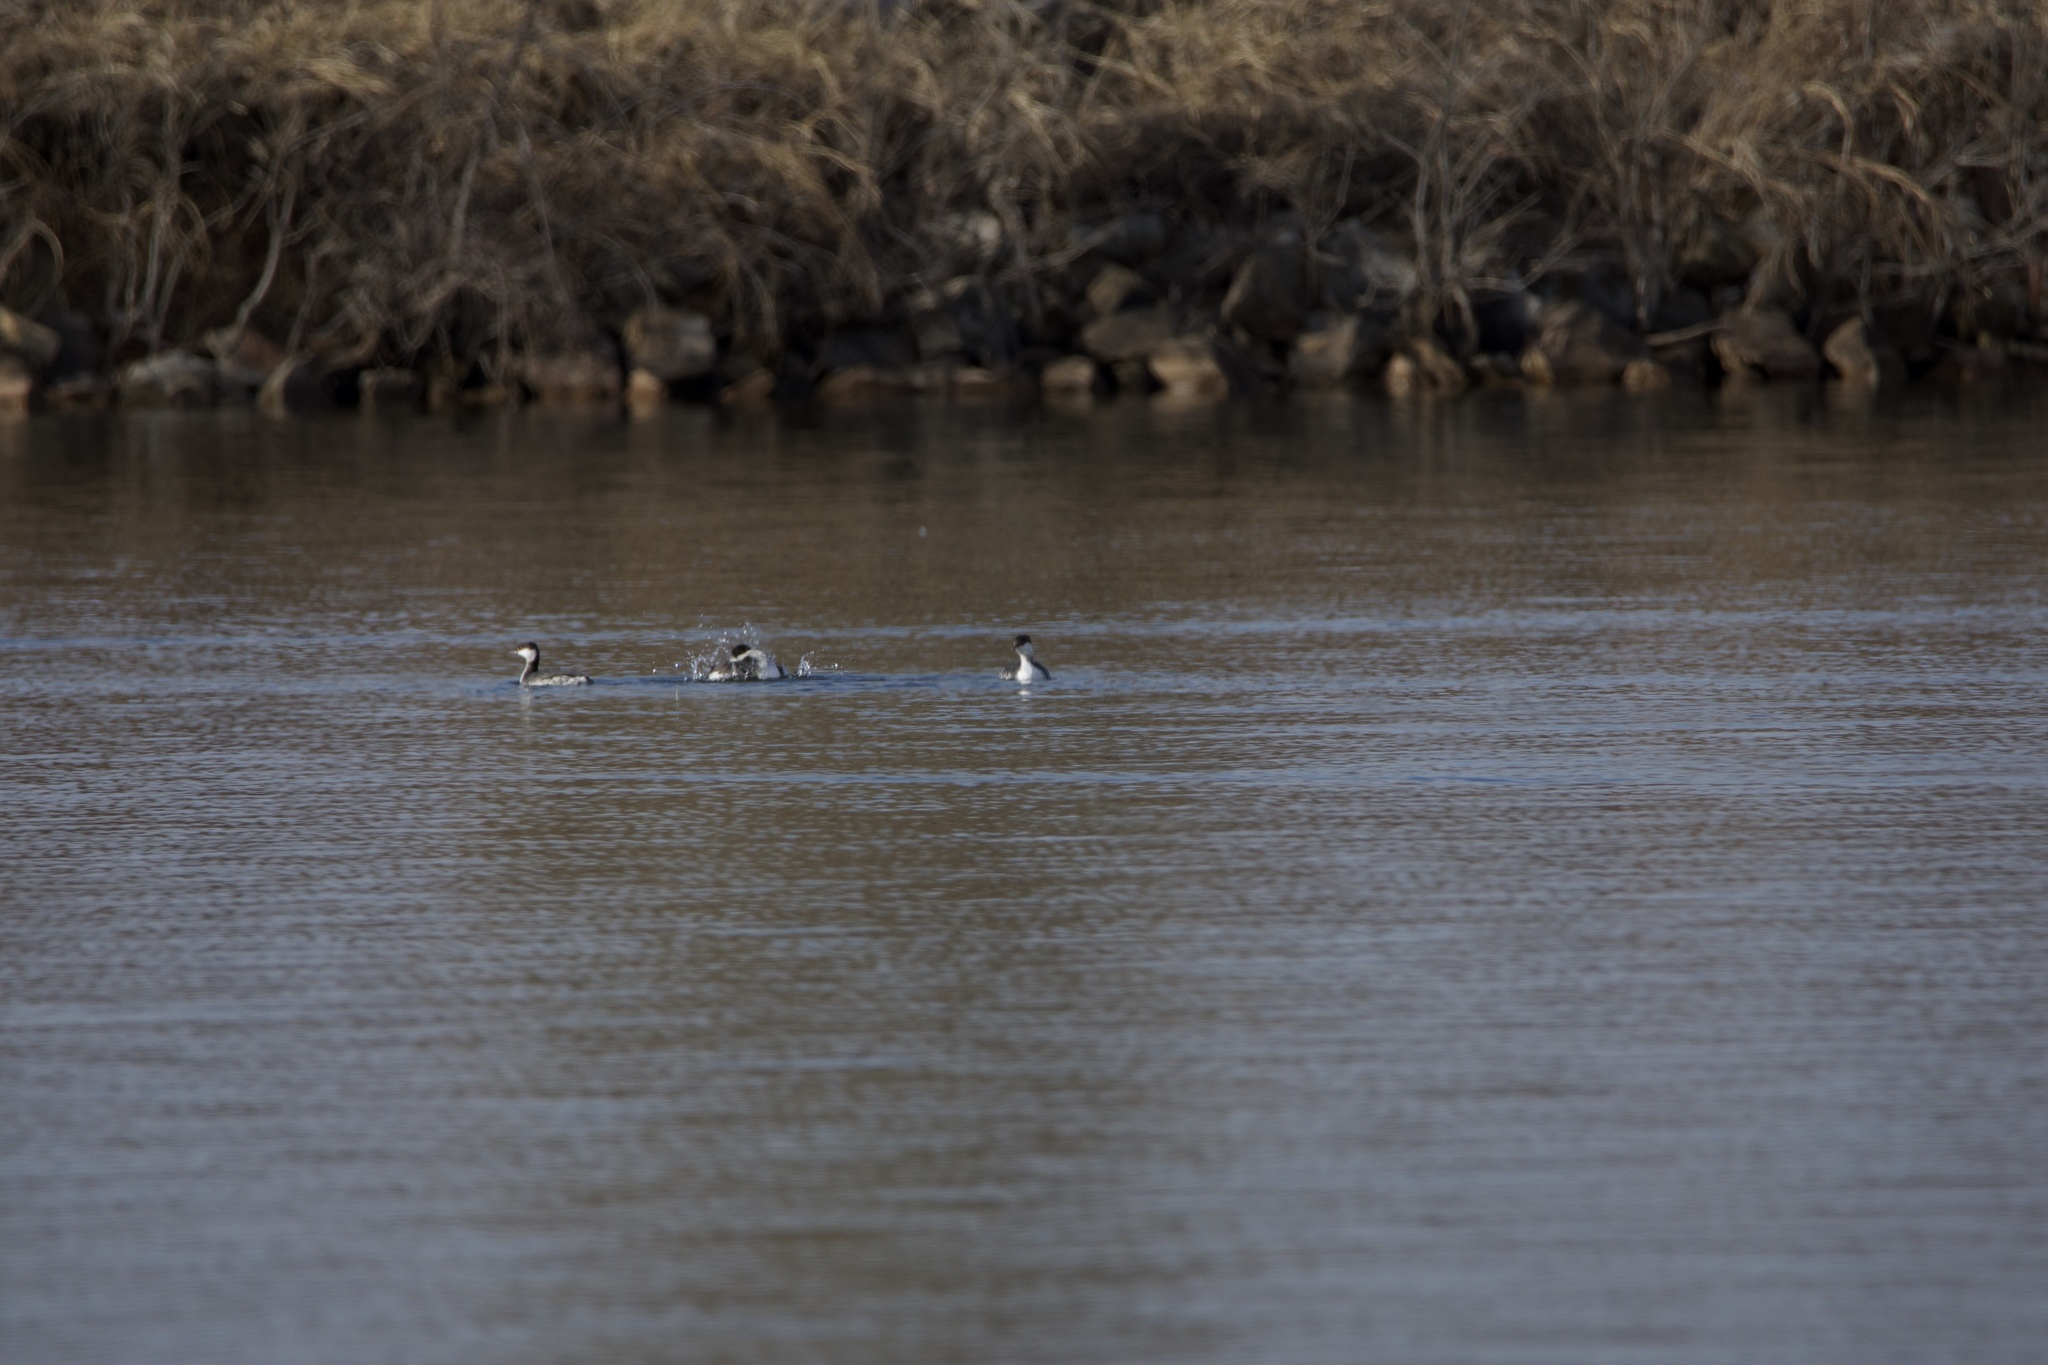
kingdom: Animalia
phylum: Chordata
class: Aves
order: Podicipediformes
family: Podicipedidae
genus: Podiceps
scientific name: Podiceps auritus
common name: Horned grebe
